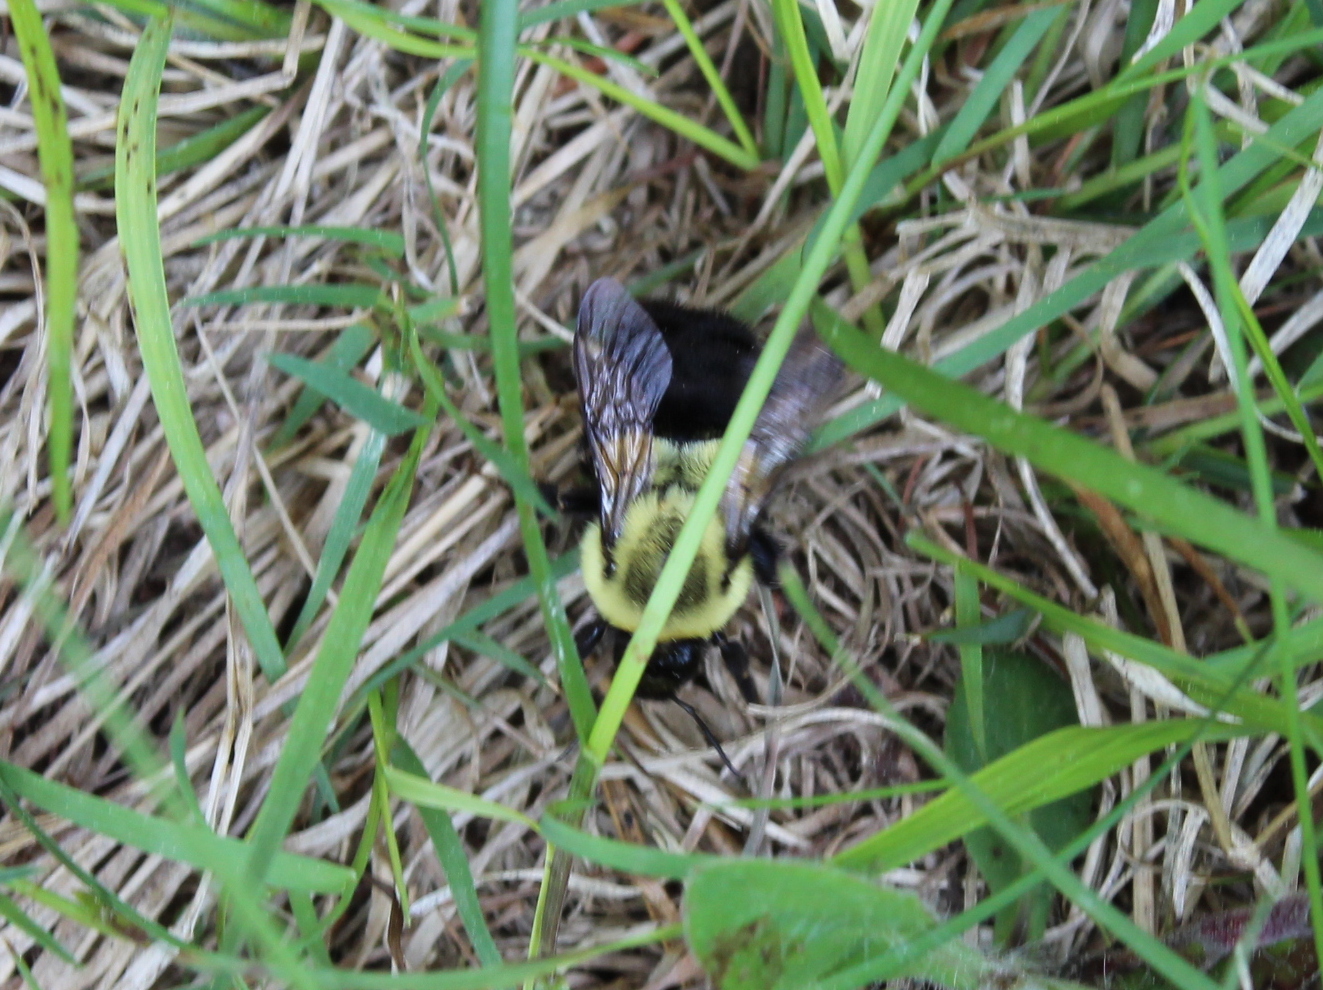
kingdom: Animalia
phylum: Arthropoda
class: Insecta
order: Hymenoptera
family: Apidae
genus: Bombus
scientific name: Bombus impatiens
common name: Common eastern bumble bee
